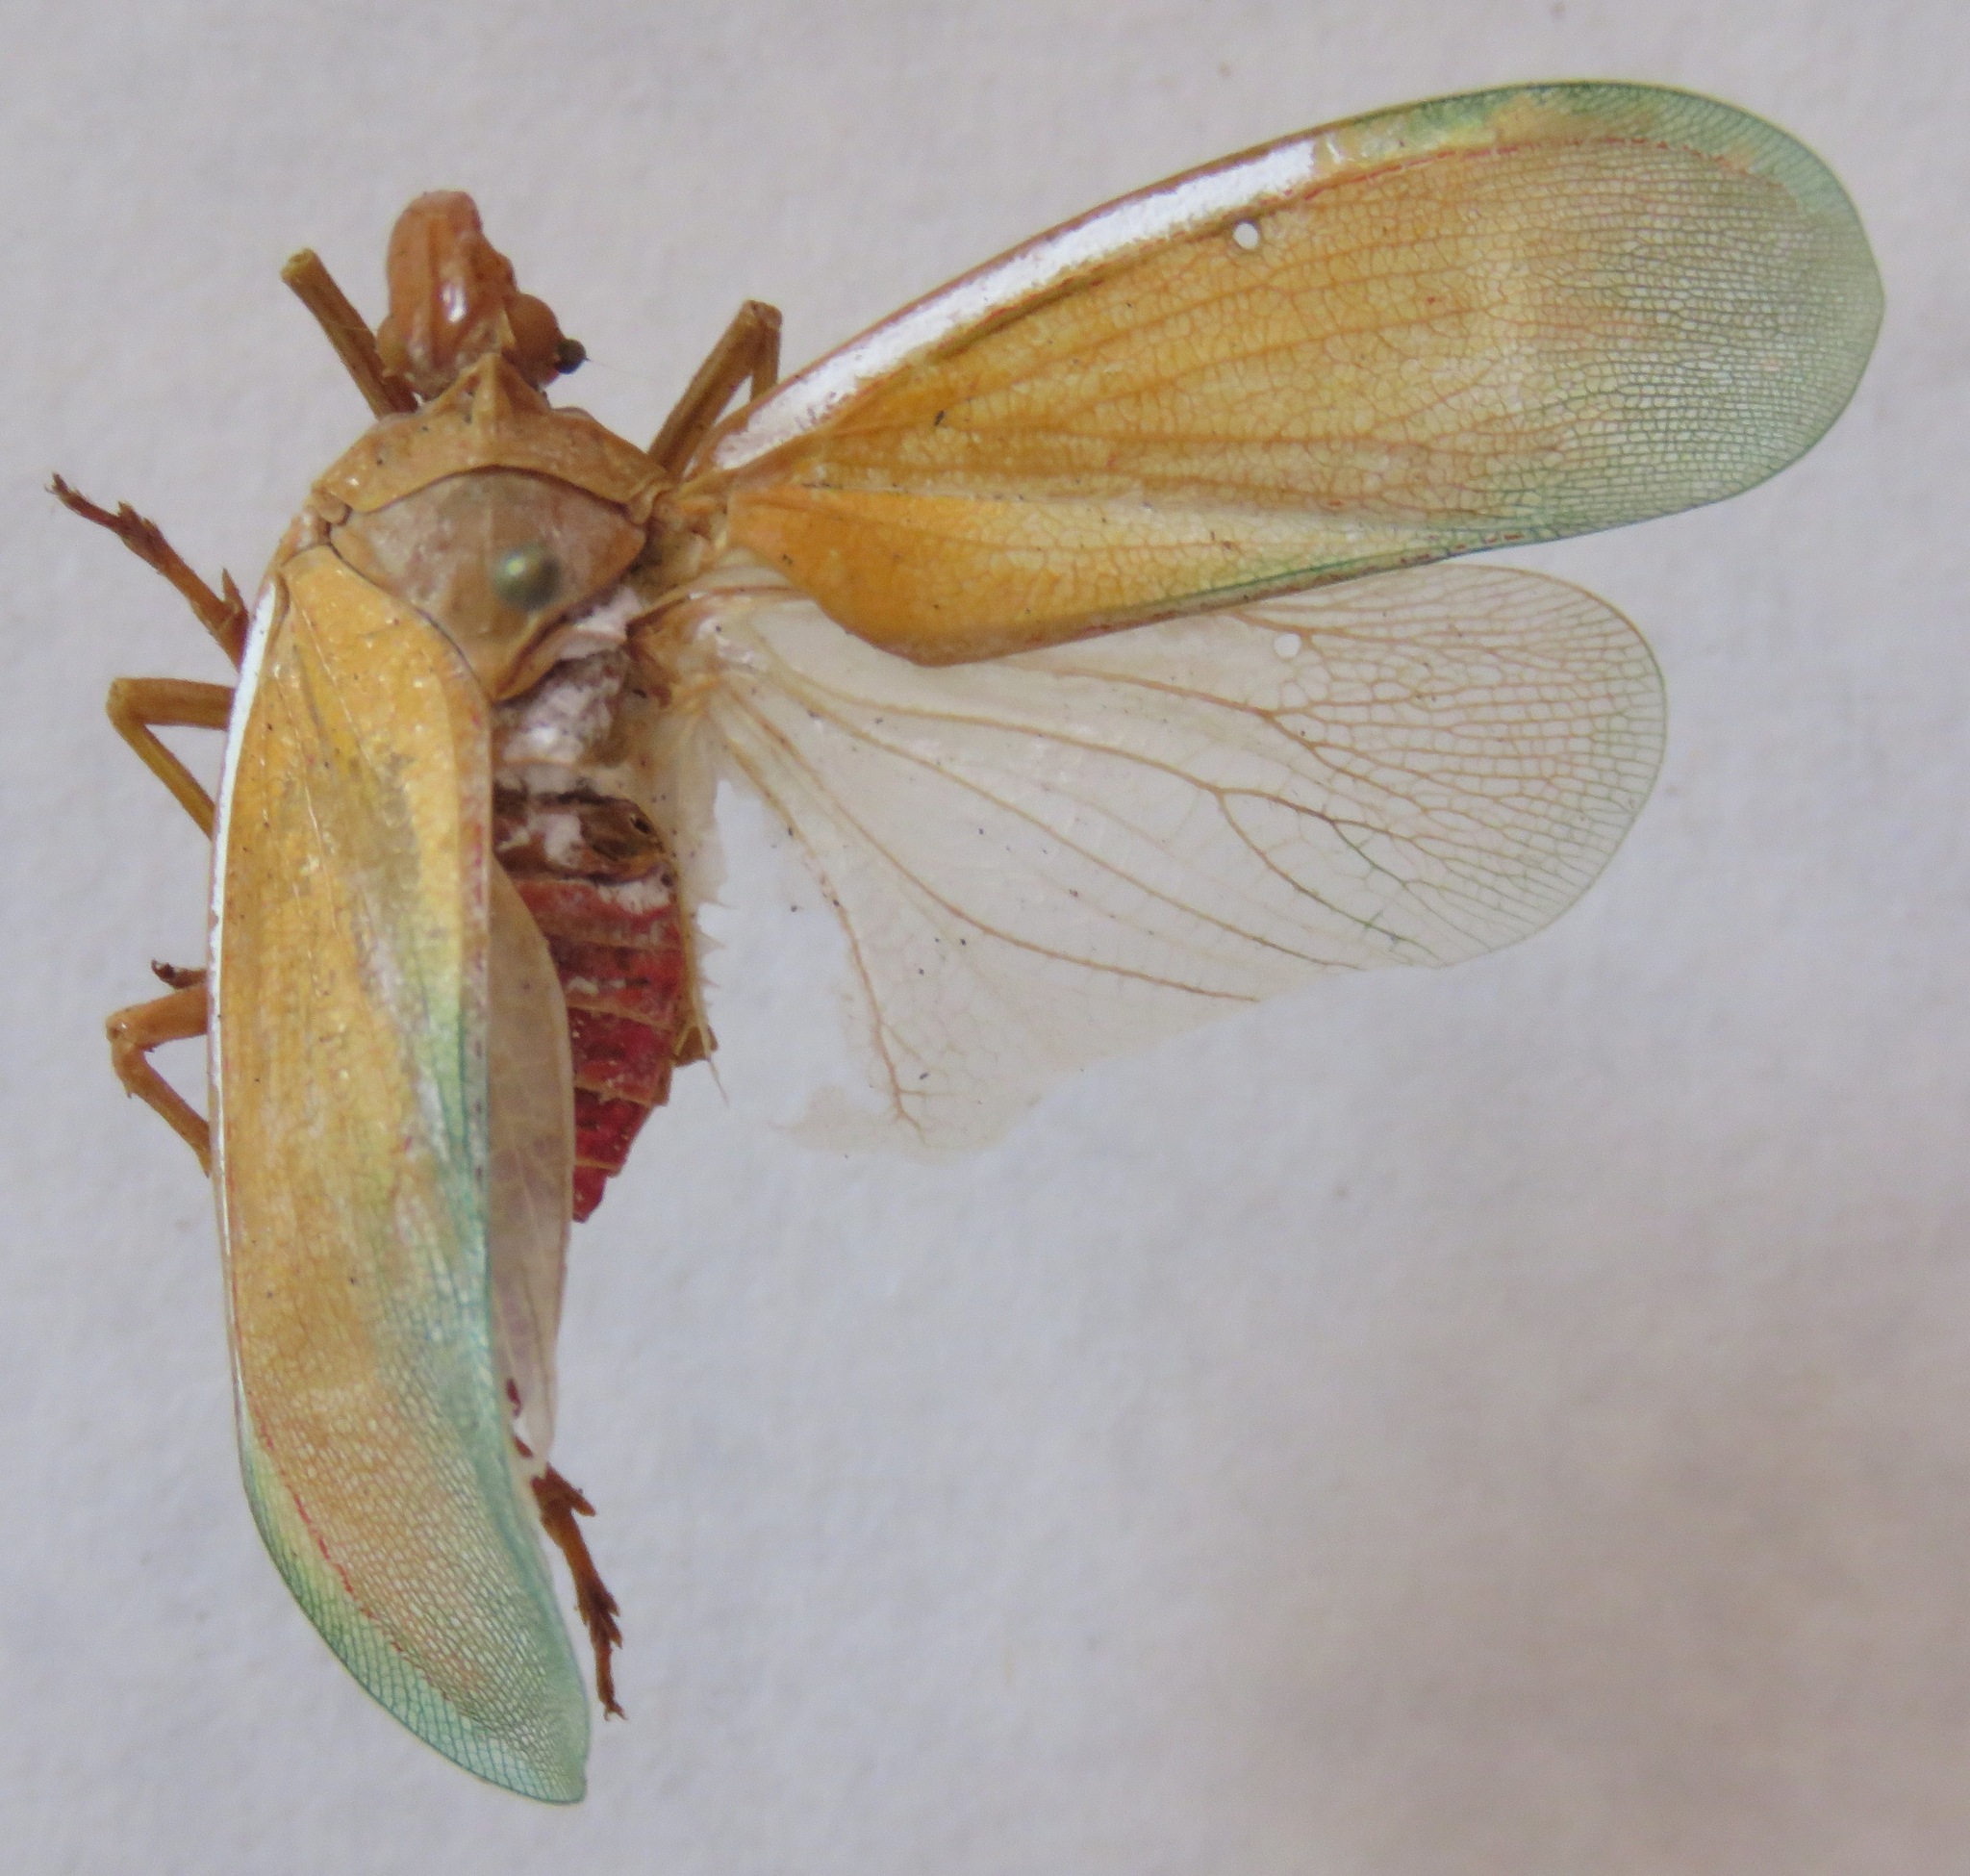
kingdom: Animalia
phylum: Arthropoda
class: Insecta
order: Hemiptera
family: Fulgoridae
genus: Enchophora
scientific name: Enchophora prasina
